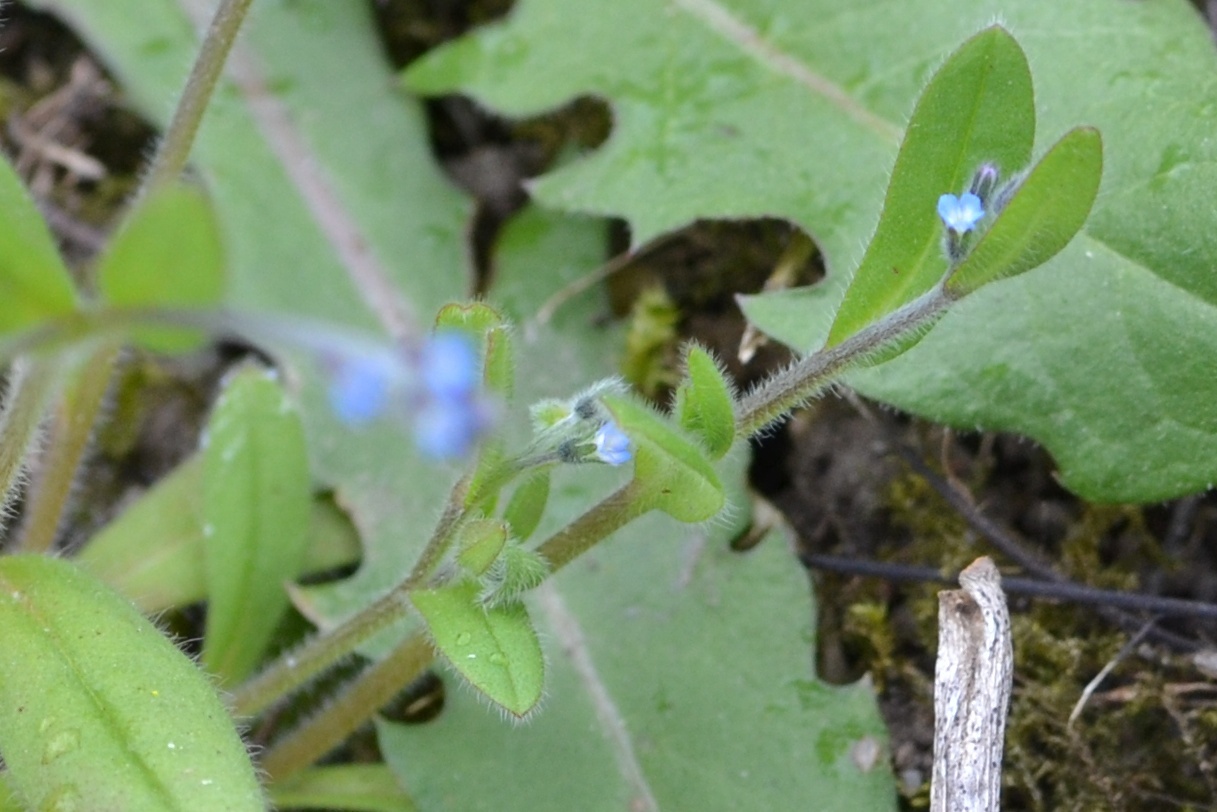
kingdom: Plantae
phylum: Tracheophyta
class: Magnoliopsida
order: Boraginales
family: Boraginaceae
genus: Myosotis
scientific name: Myosotis ramosissima
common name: Early forget-me-not
